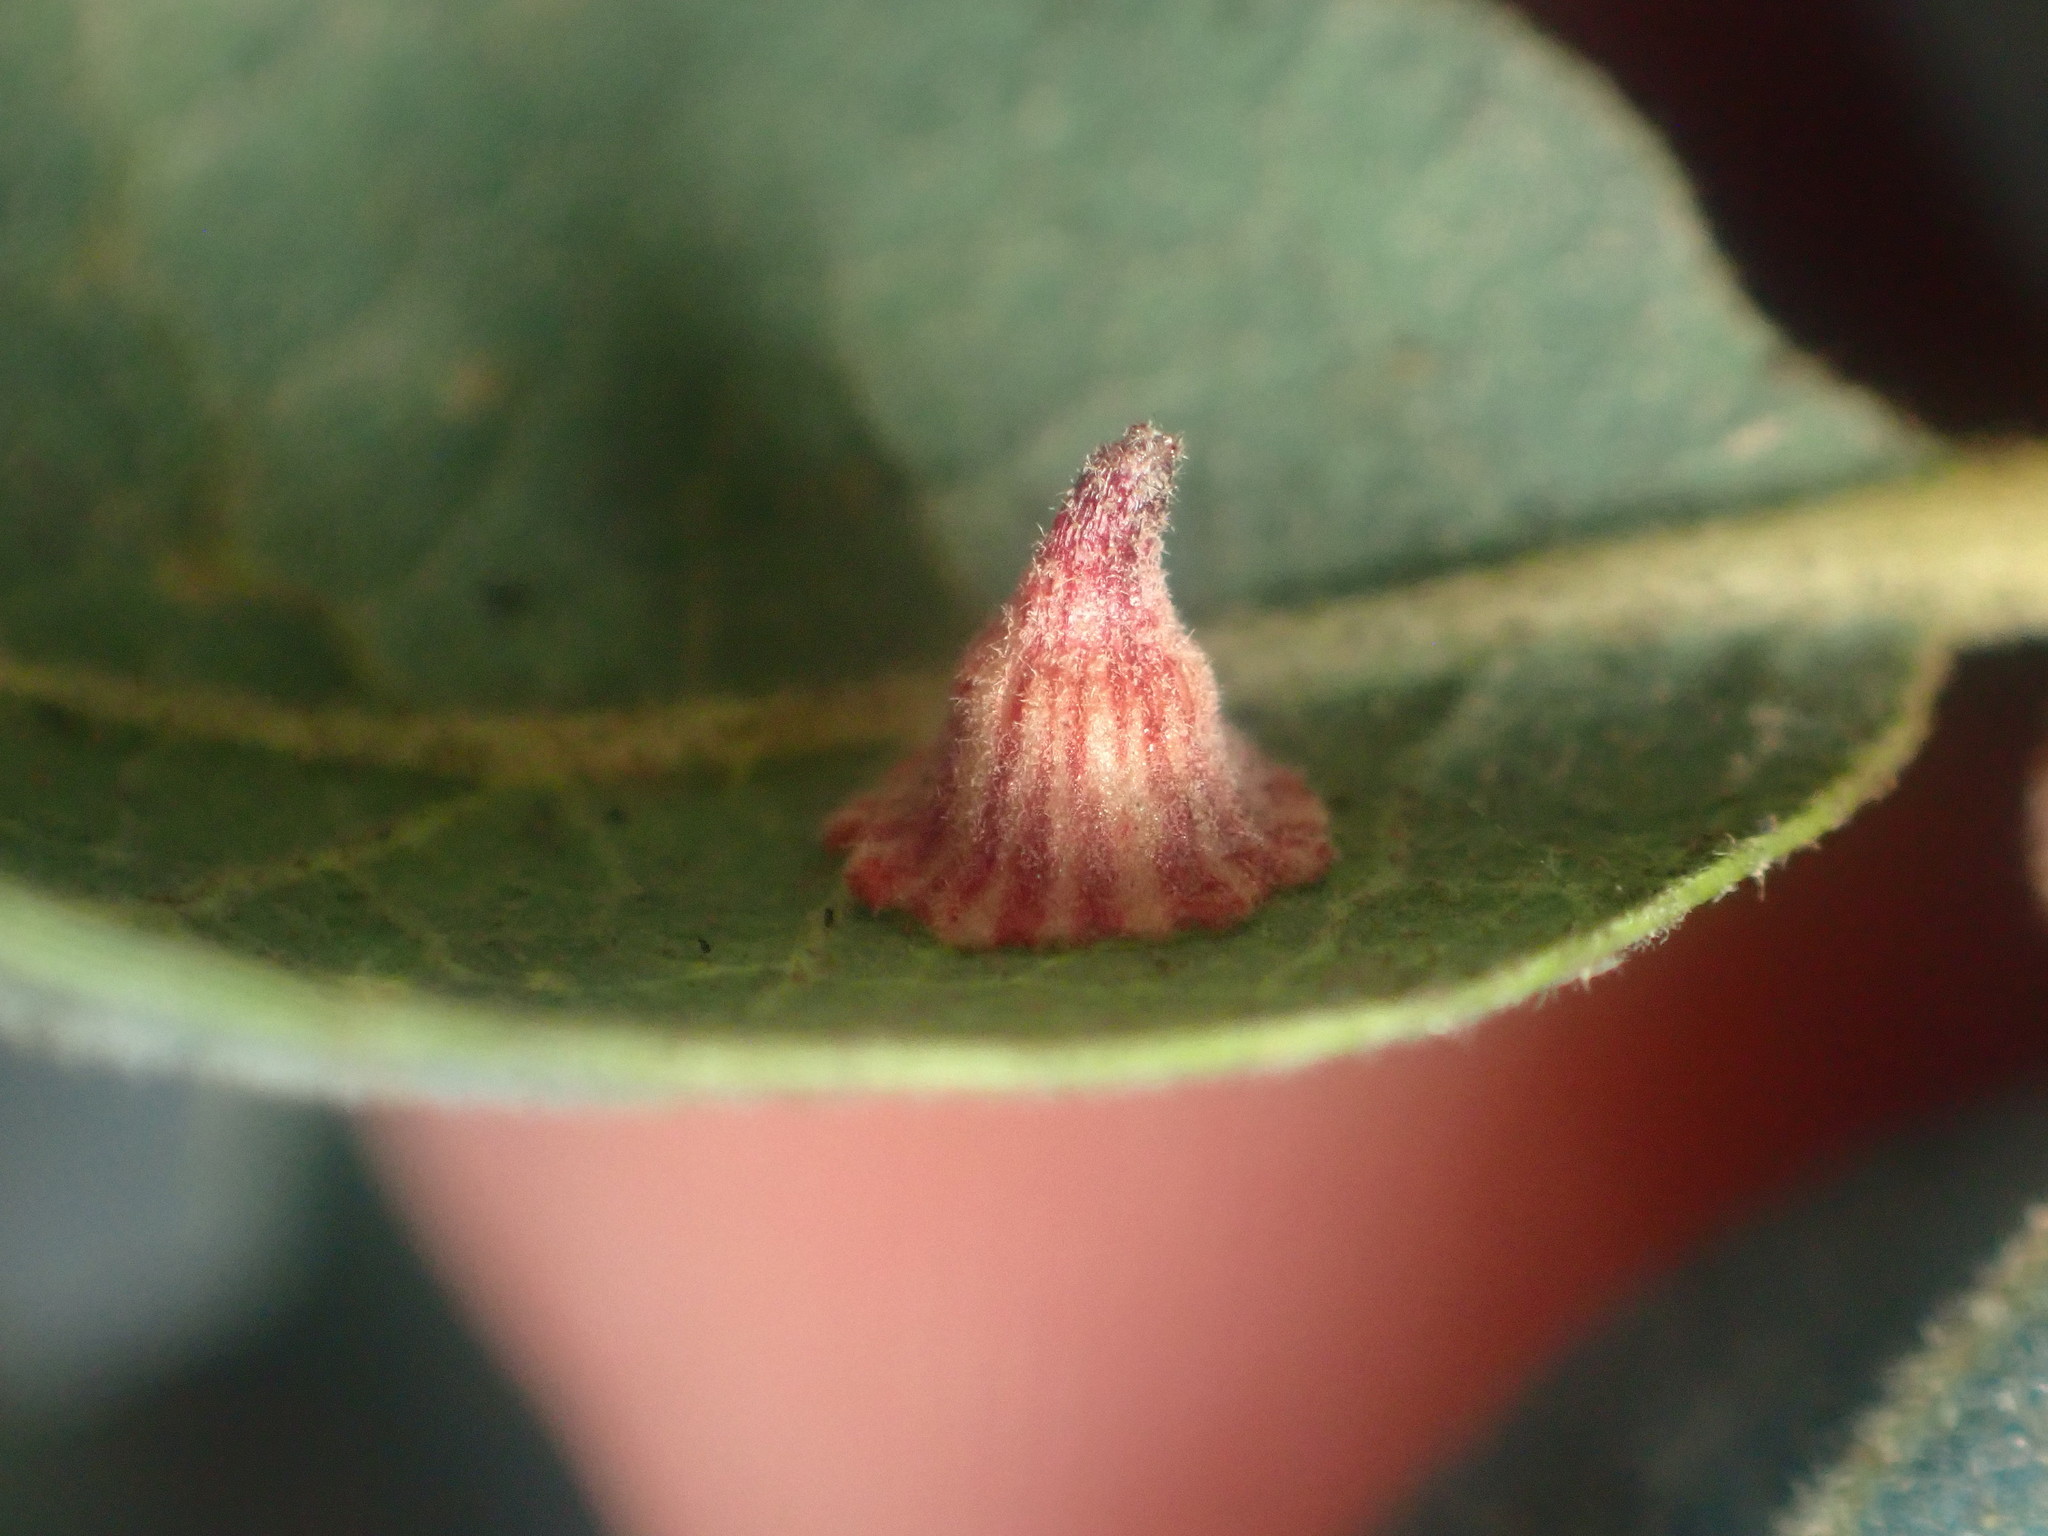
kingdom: Animalia
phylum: Arthropoda
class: Insecta
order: Hymenoptera
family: Cynipidae
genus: Andricus
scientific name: Andricus
